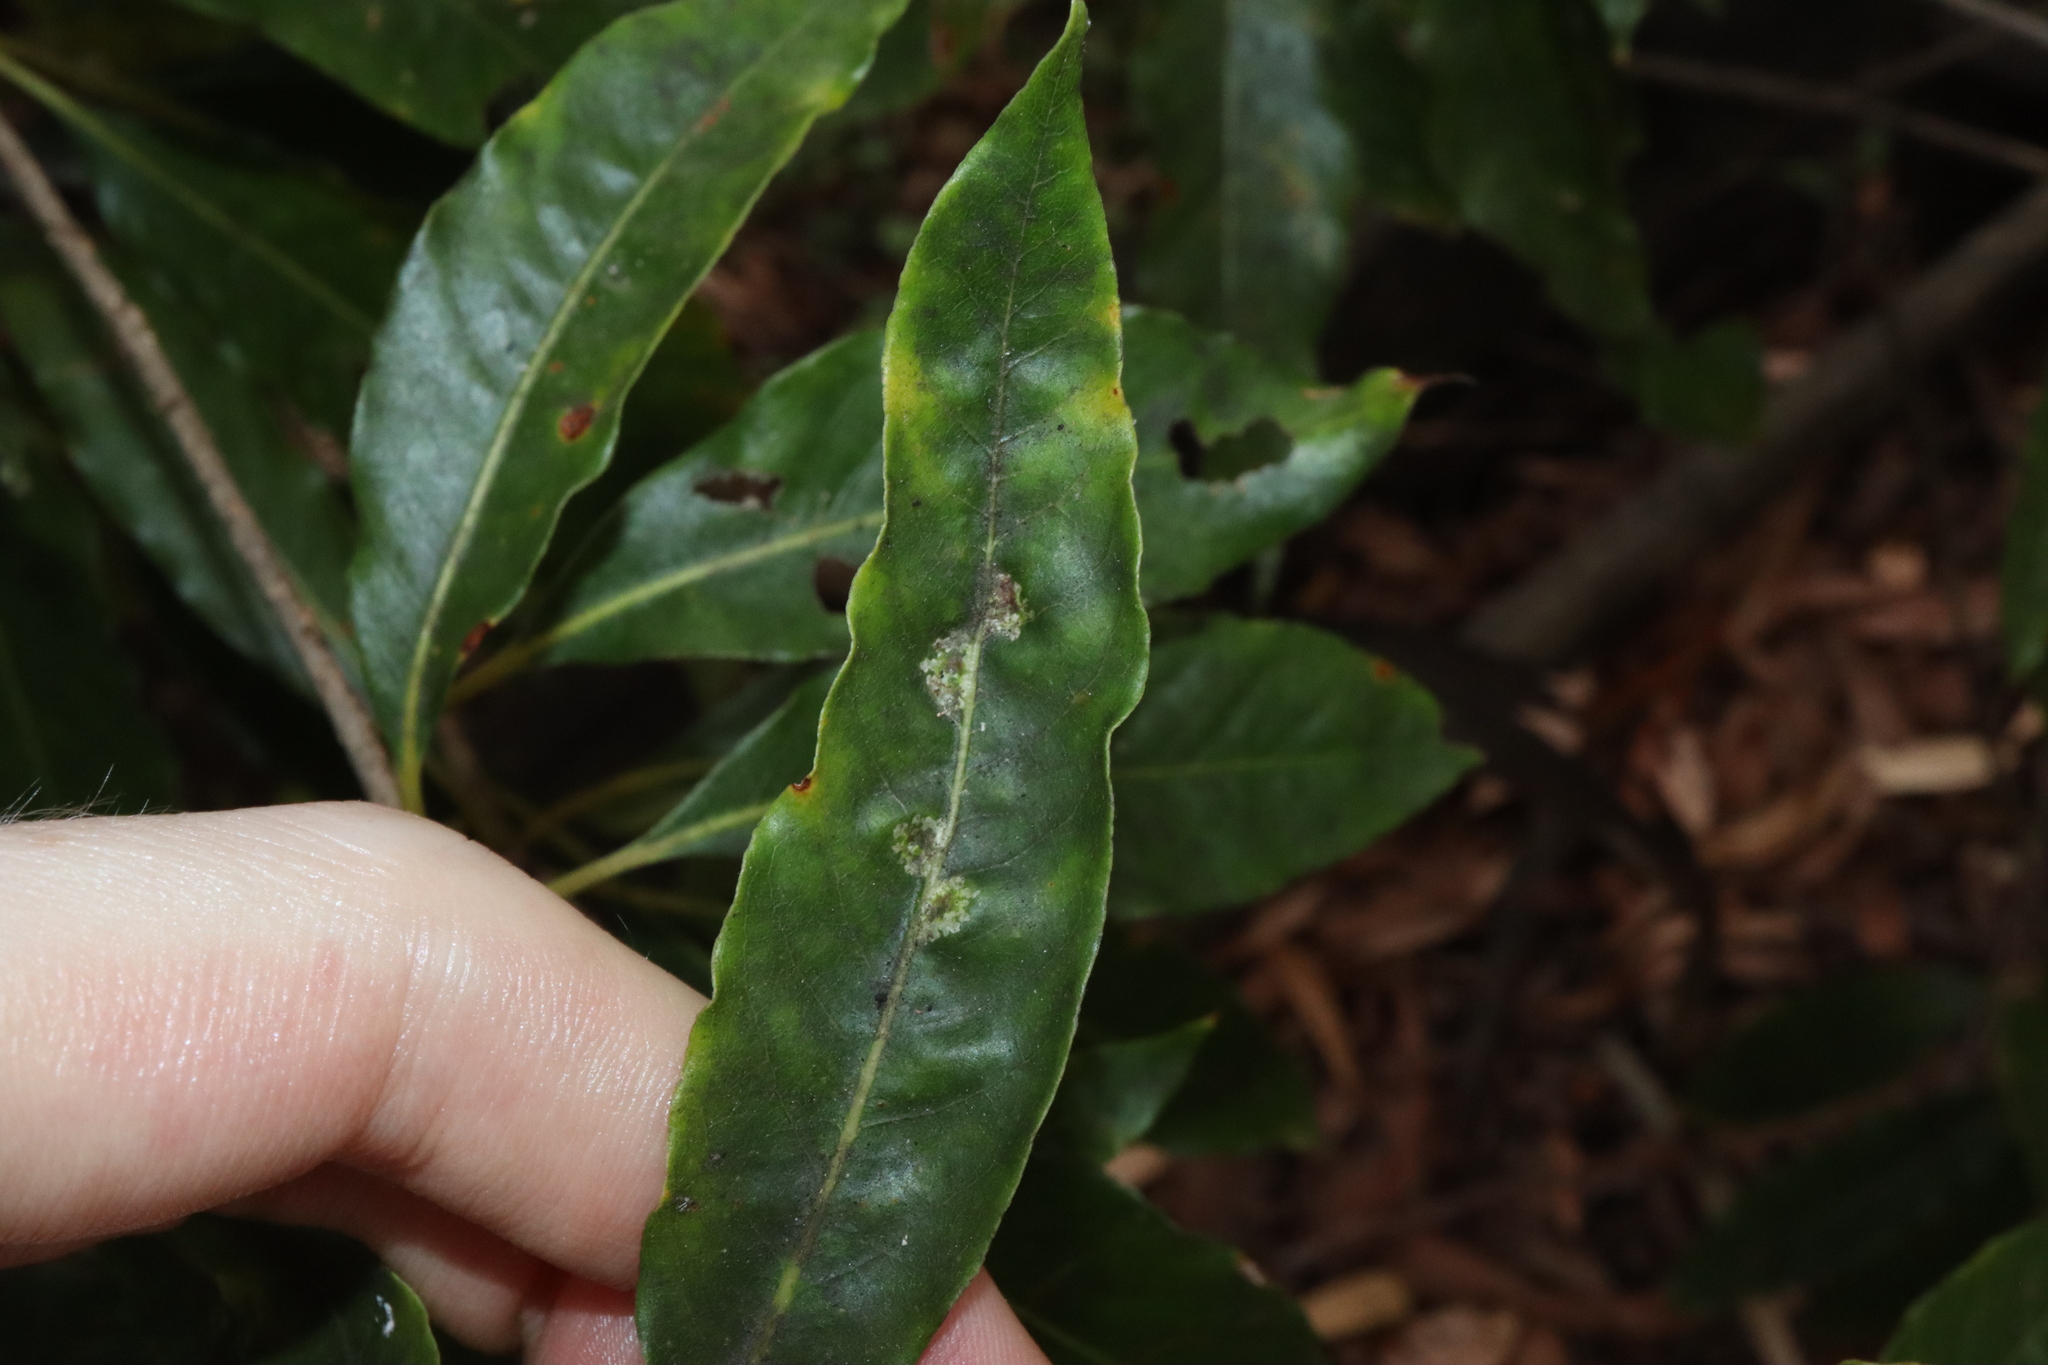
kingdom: Animalia
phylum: Arthropoda
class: Insecta
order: Diptera
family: Agromyzidae
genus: Phytoliriomyza
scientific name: Phytoliriomyza pittosporophylli
